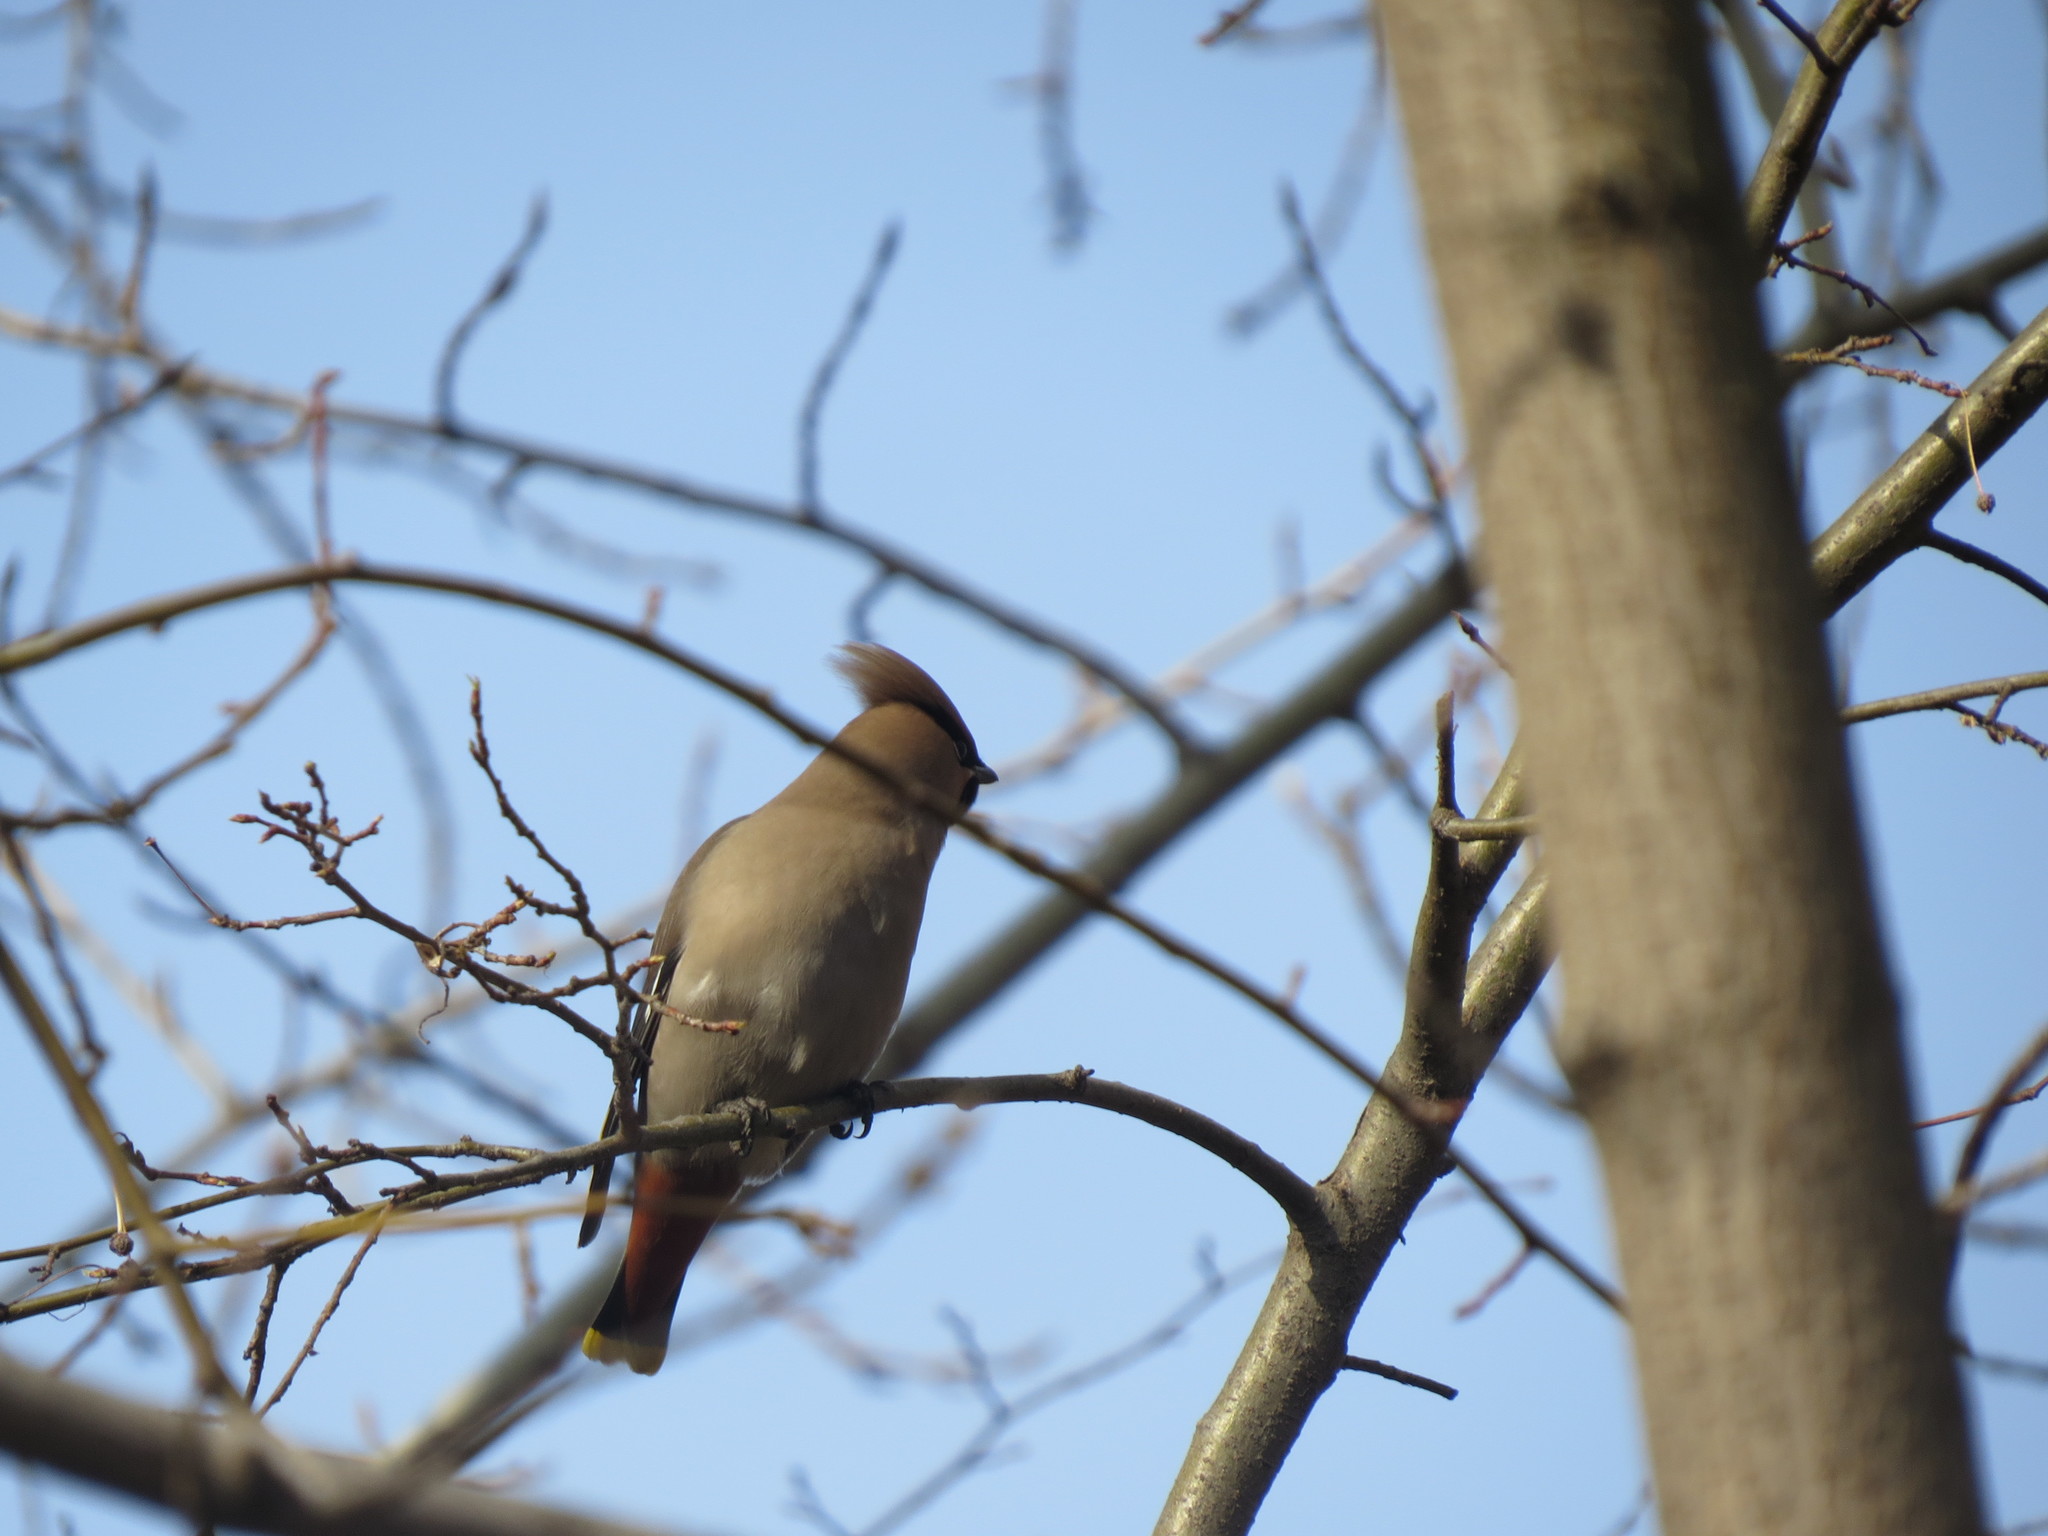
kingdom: Animalia
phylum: Chordata
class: Aves
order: Passeriformes
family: Bombycillidae
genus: Bombycilla
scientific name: Bombycilla garrulus
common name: Bohemian waxwing
